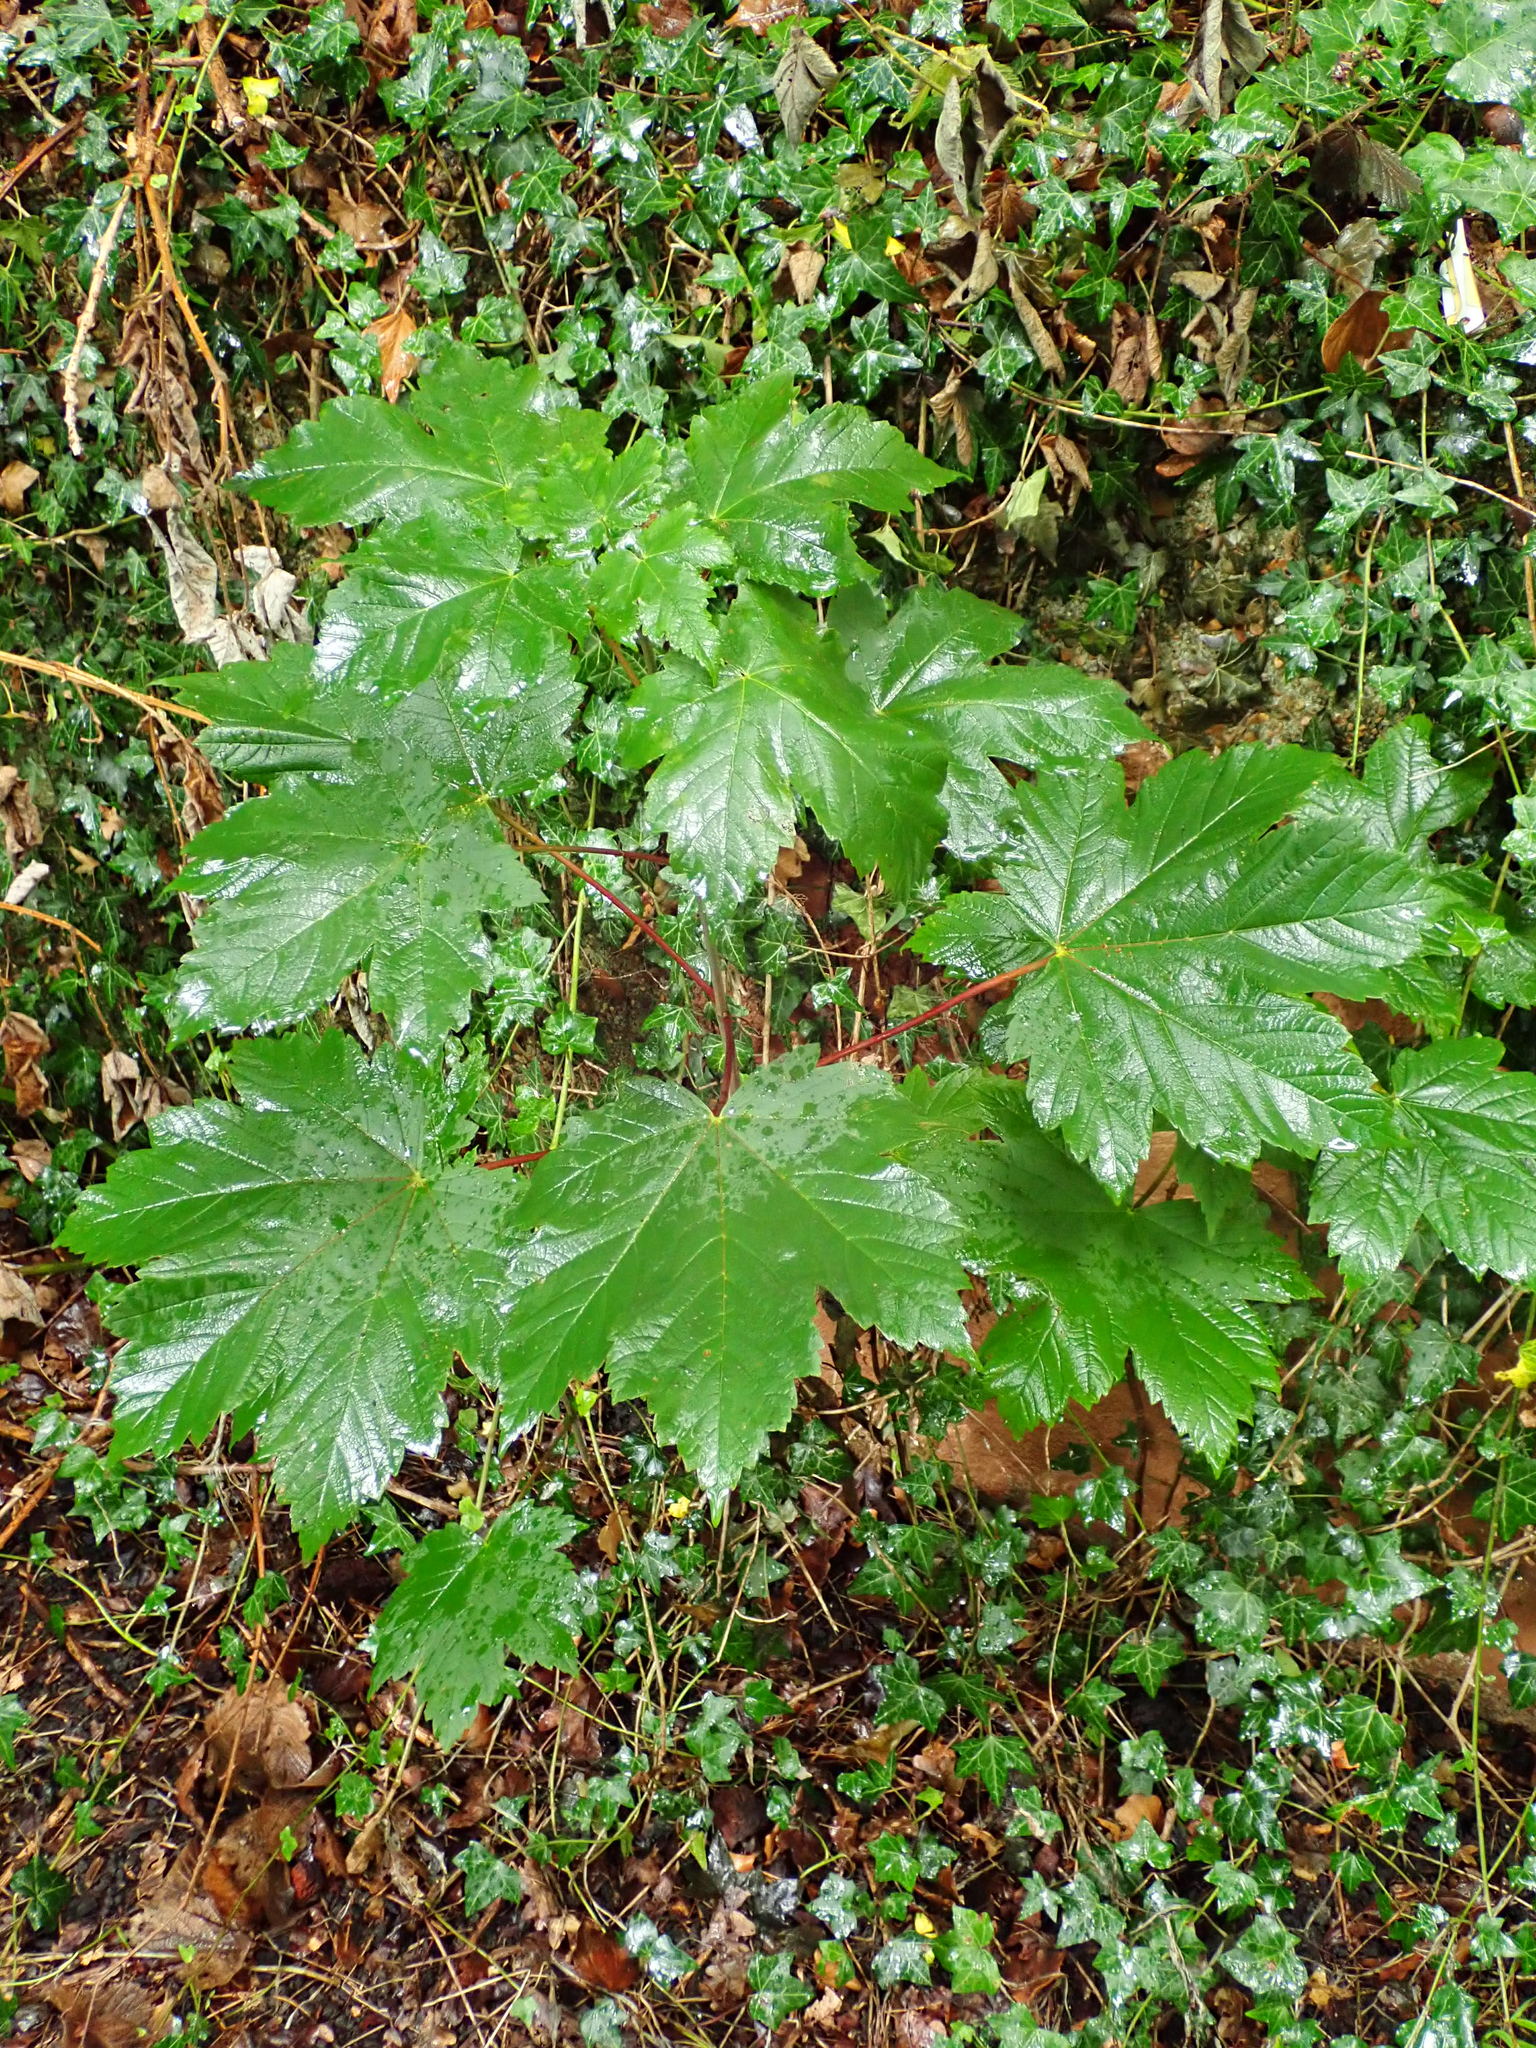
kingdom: Plantae
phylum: Tracheophyta
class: Magnoliopsida
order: Sapindales
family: Sapindaceae
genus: Acer
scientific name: Acer pseudoplatanus
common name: Sycamore
